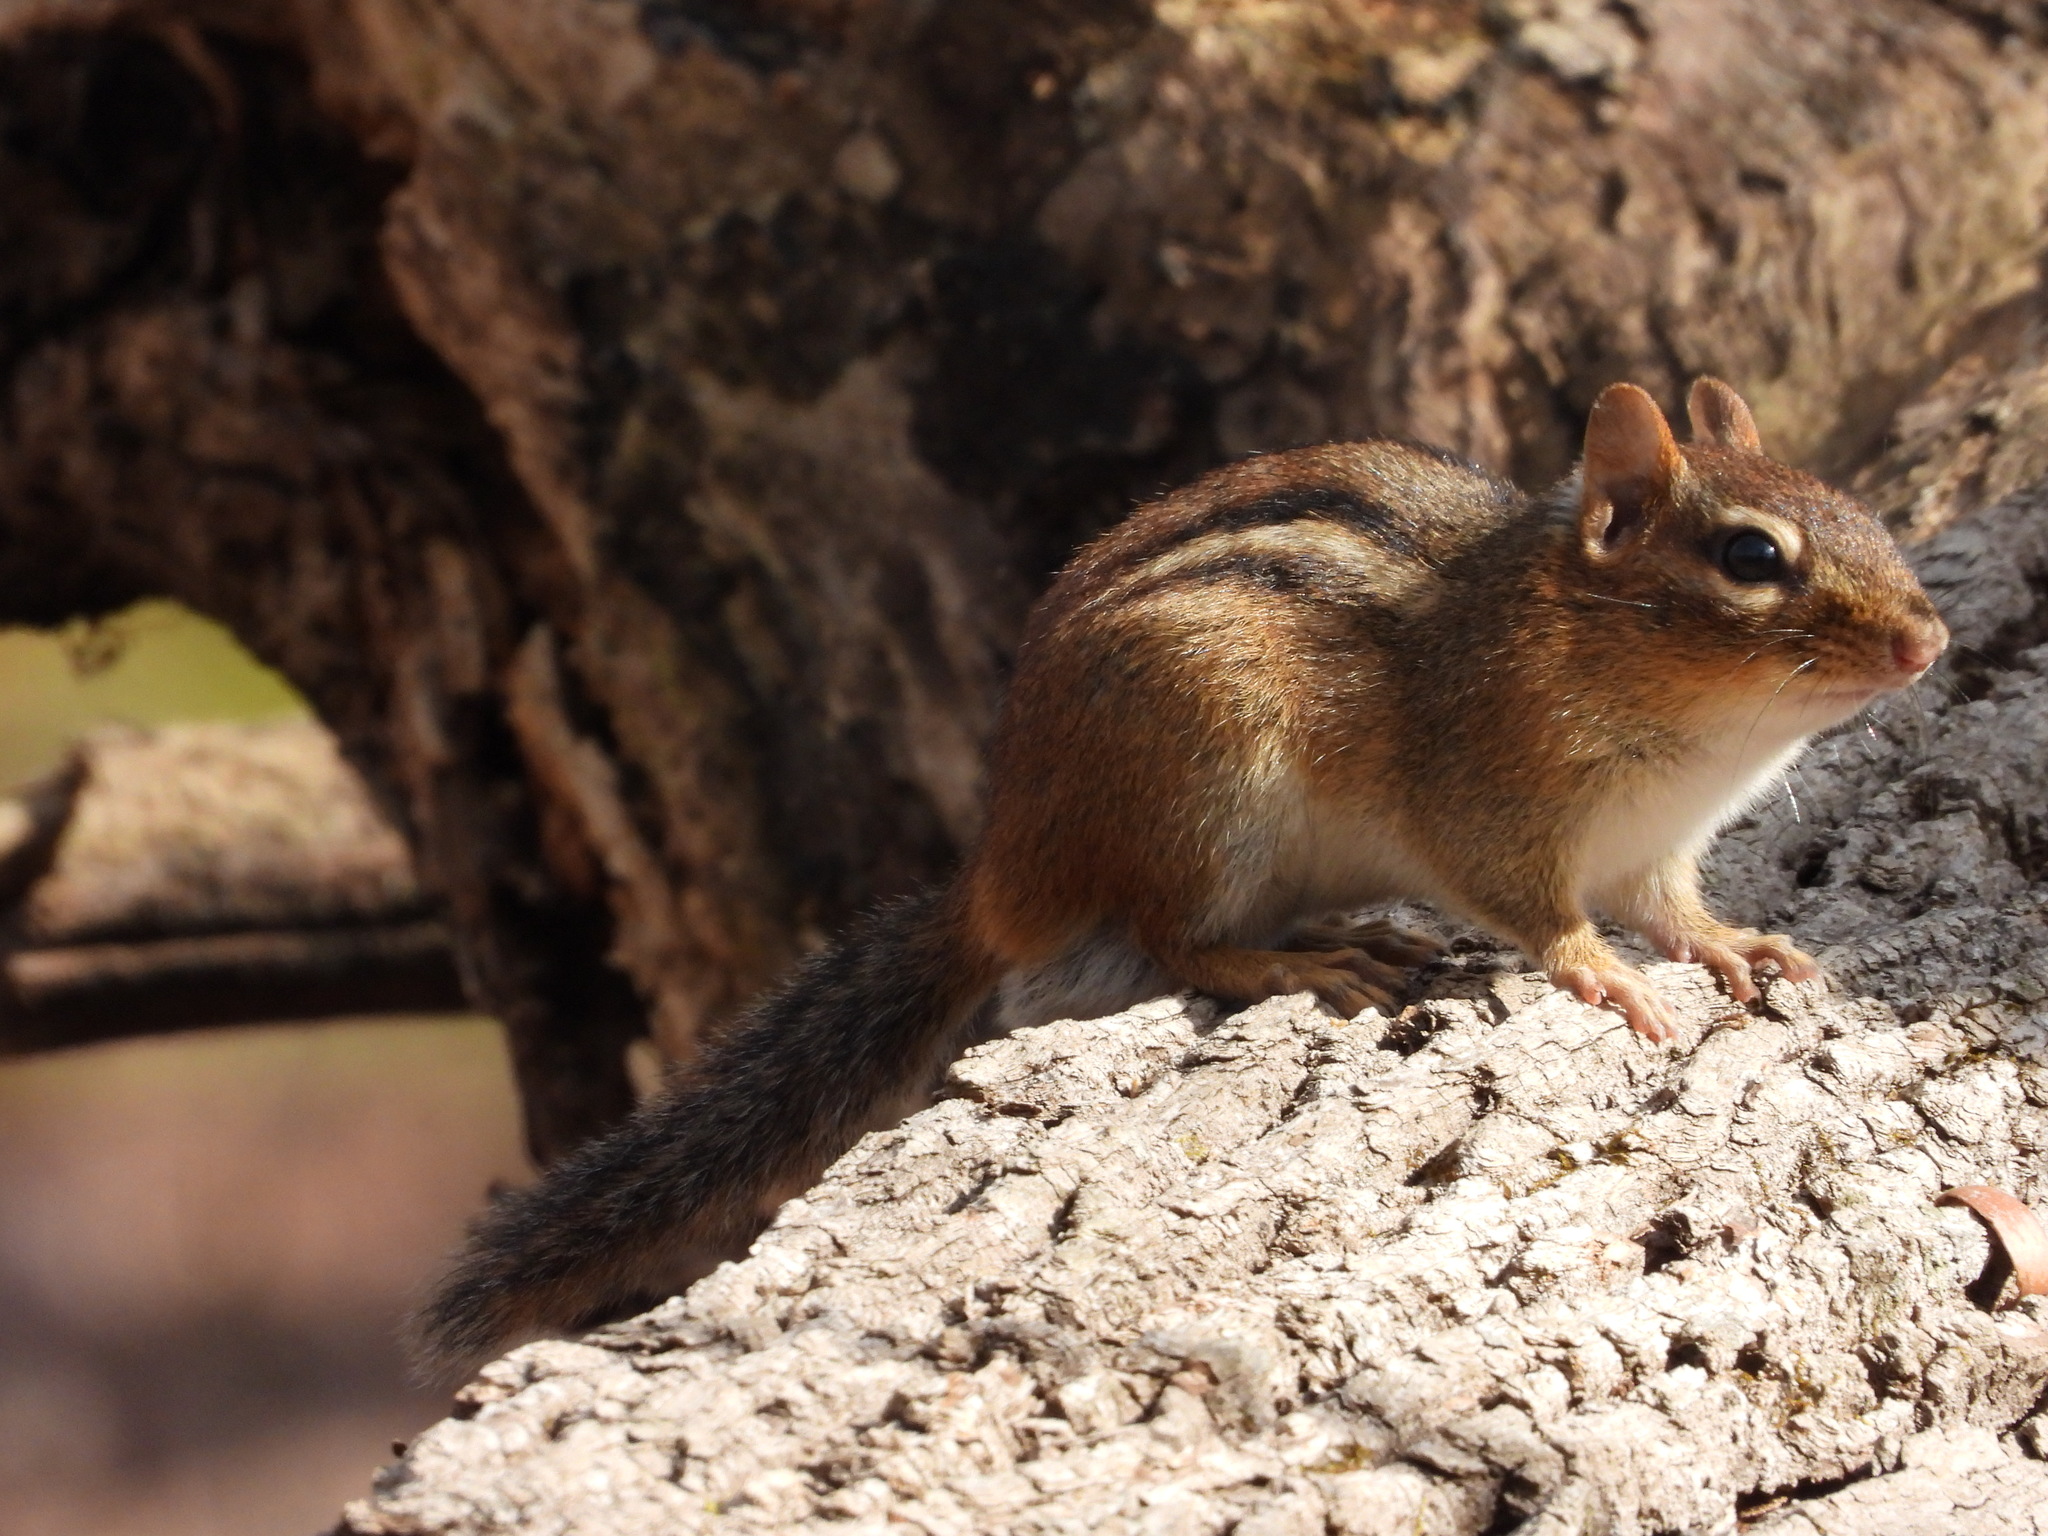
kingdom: Animalia
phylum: Chordata
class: Mammalia
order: Rodentia
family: Sciuridae
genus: Tamias
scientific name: Tamias striatus
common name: Eastern chipmunk
